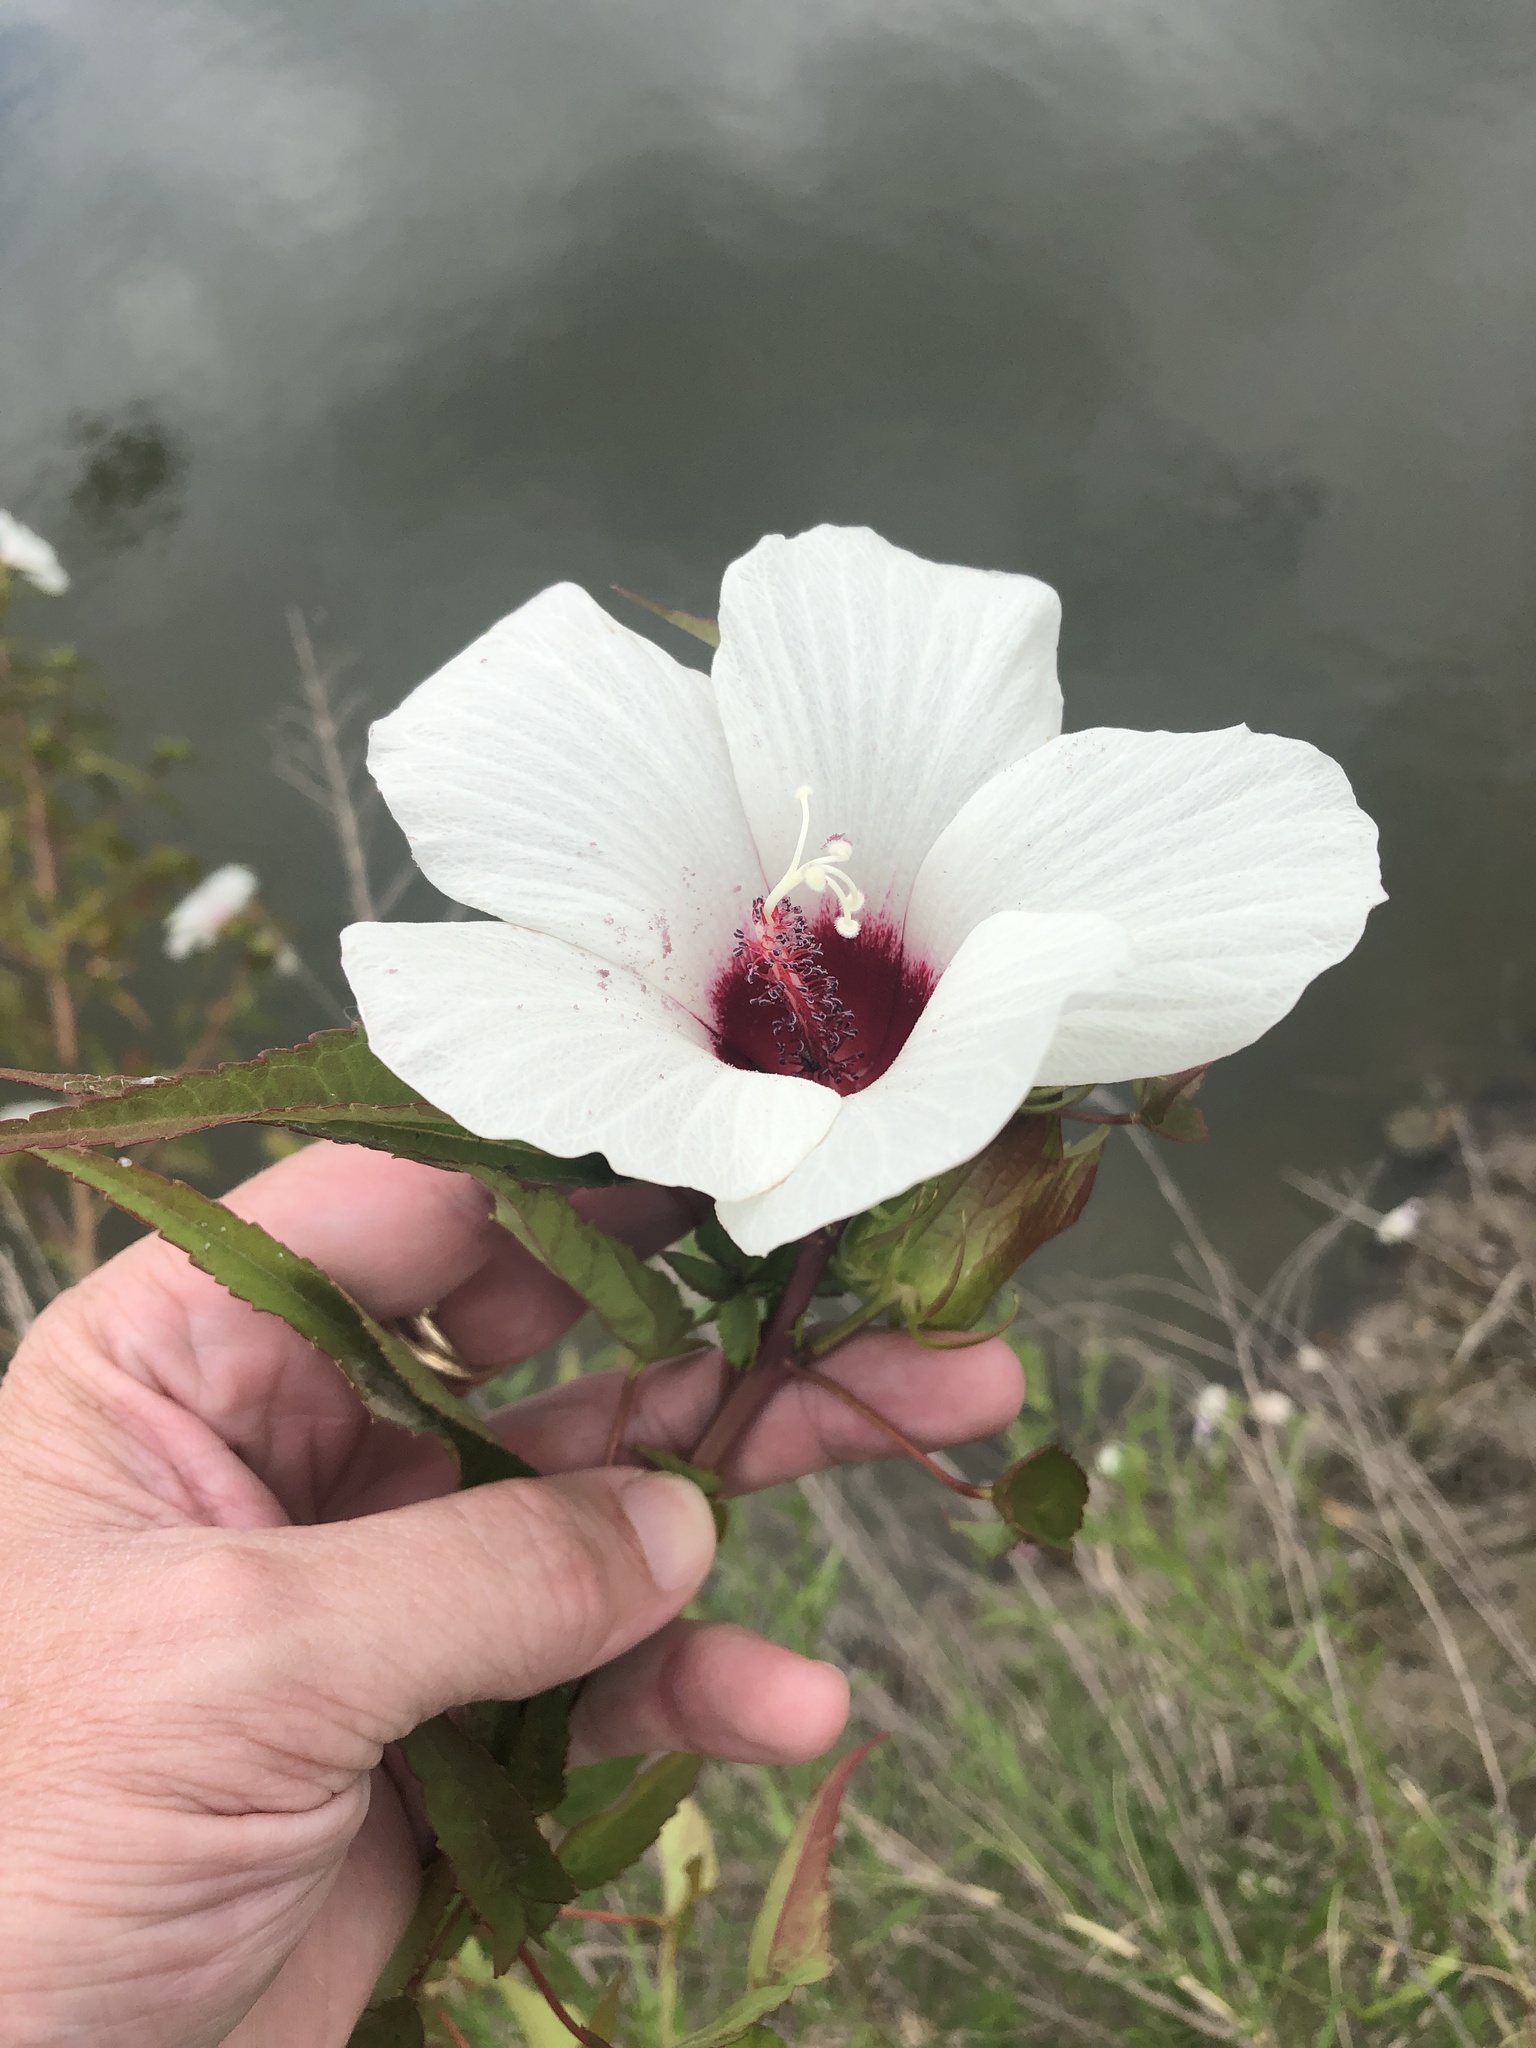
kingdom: Plantae
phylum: Tracheophyta
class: Magnoliopsida
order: Malvales
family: Malvaceae
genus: Hibiscus
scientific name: Hibiscus laevis
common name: Scarlet rose-mallow
